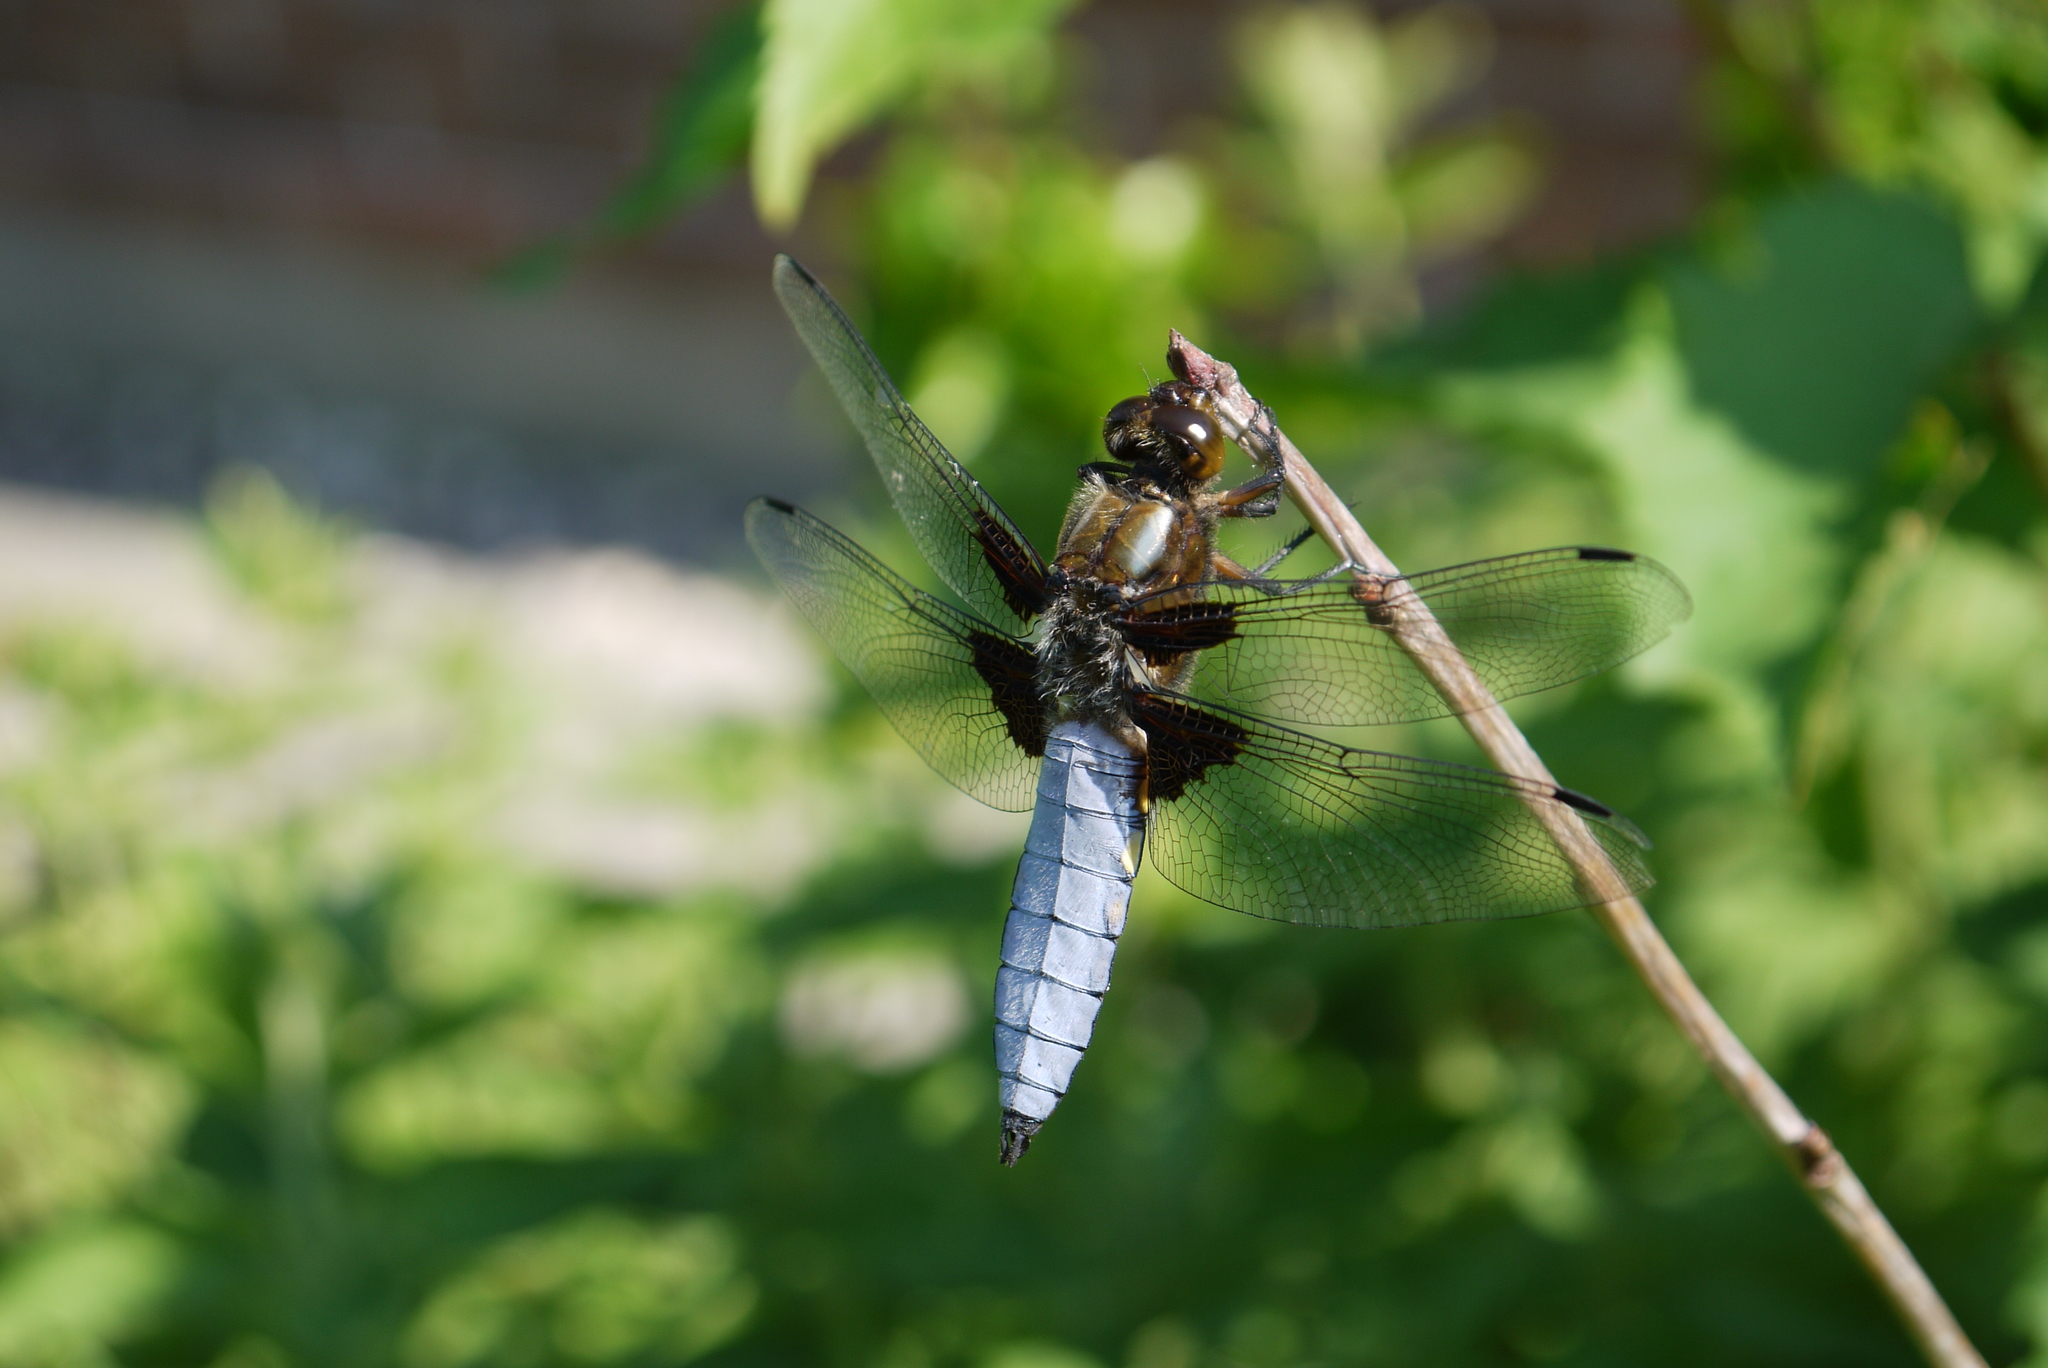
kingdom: Animalia
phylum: Arthropoda
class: Insecta
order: Odonata
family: Libellulidae
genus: Libellula
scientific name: Libellula depressa
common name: Broad-bodied chaser
